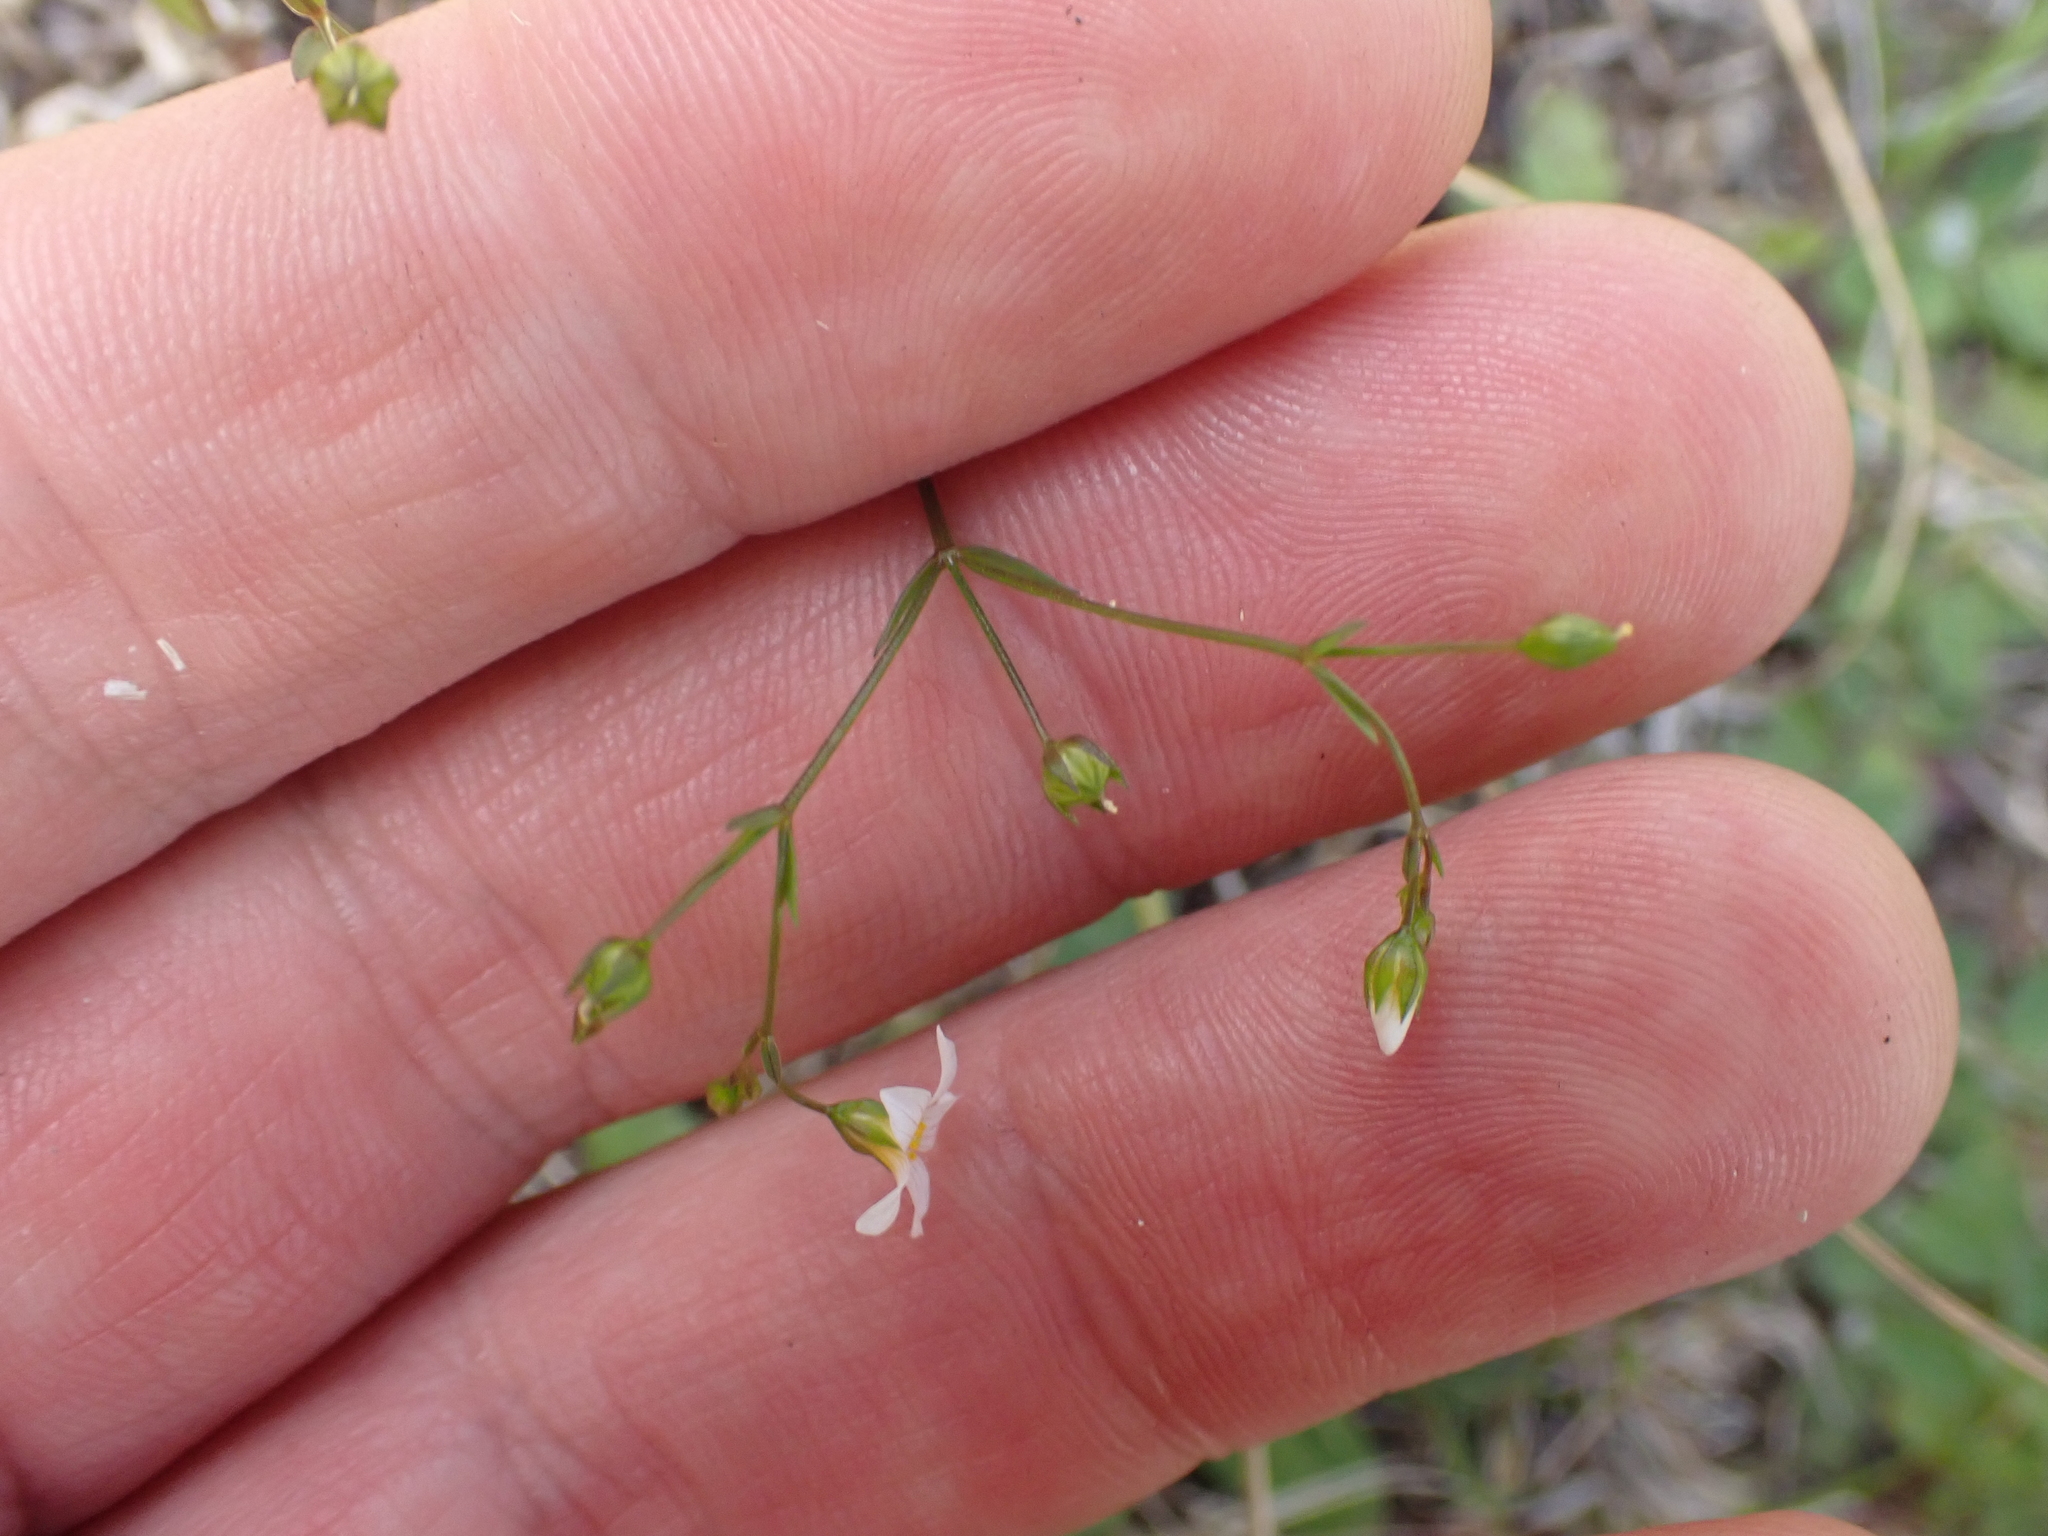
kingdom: Plantae
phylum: Tracheophyta
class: Magnoliopsida
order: Malpighiales
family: Linaceae
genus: Linum
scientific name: Linum catharticum
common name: Fairy flax
